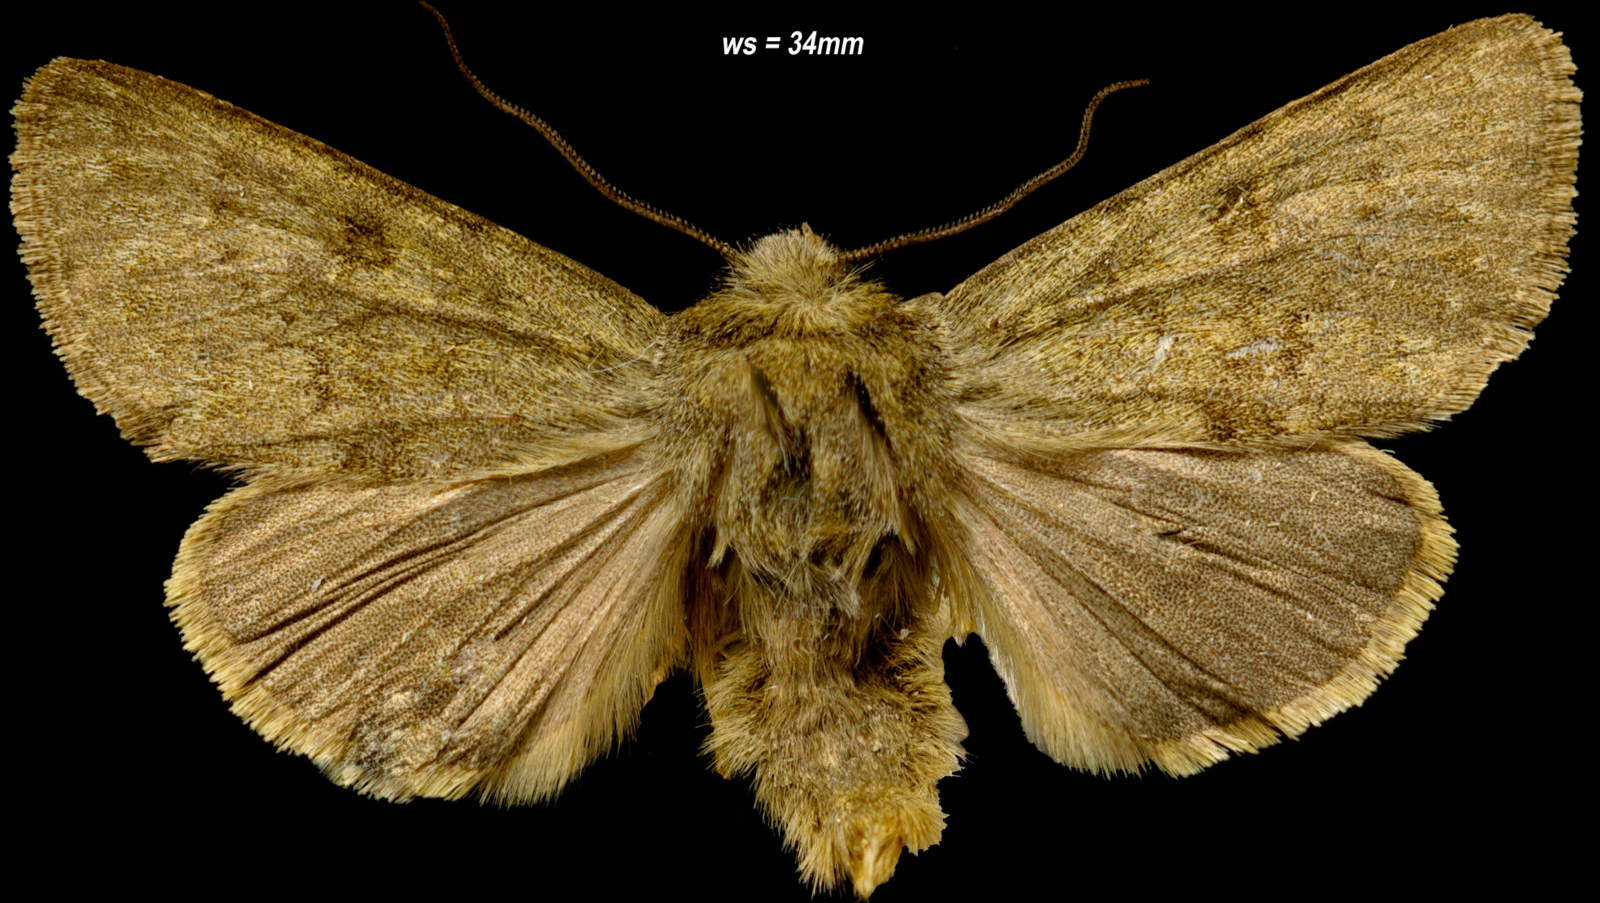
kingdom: Animalia
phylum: Arthropoda
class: Insecta
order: Lepidoptera
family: Noctuidae
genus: Lasionycta
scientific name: Lasionycta uniformis
